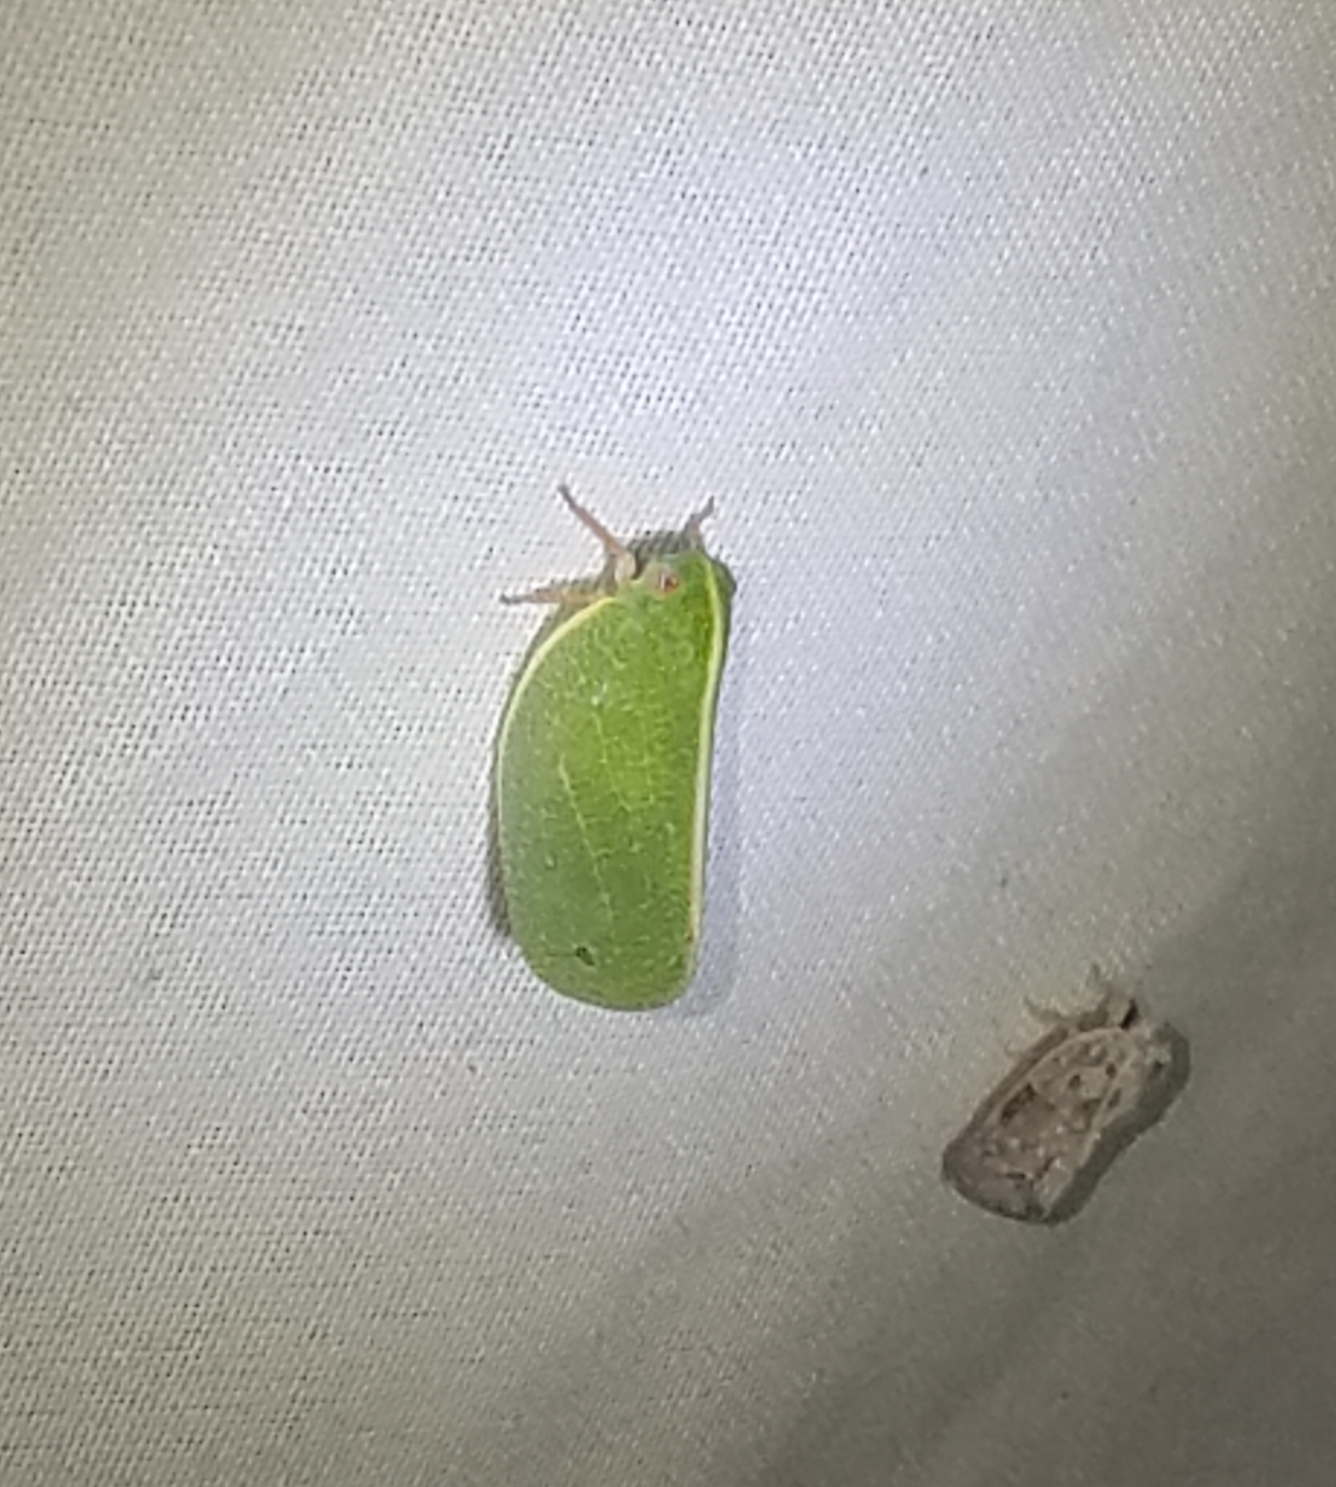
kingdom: Animalia
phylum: Arthropoda
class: Insecta
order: Hemiptera
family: Acanaloniidae
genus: Acanalonia
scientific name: Acanalonia servillei
